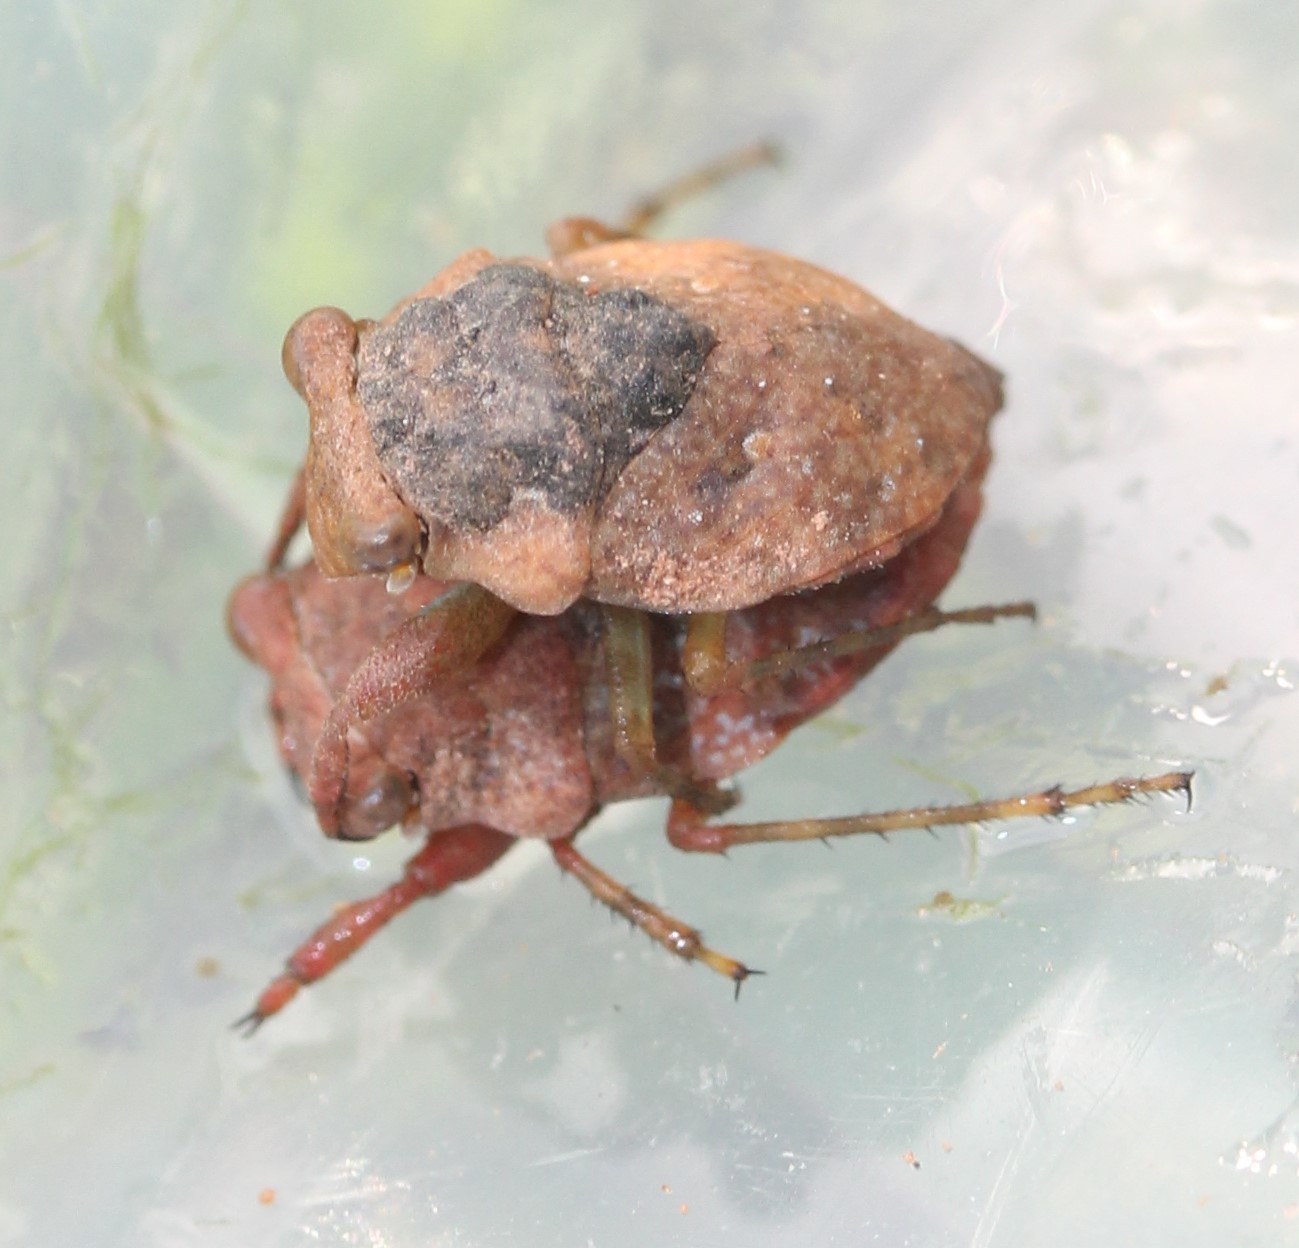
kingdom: Animalia
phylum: Arthropoda
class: Insecta
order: Hemiptera
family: Gelastocoridae
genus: Gelastocoris
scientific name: Gelastocoris rotundatus
